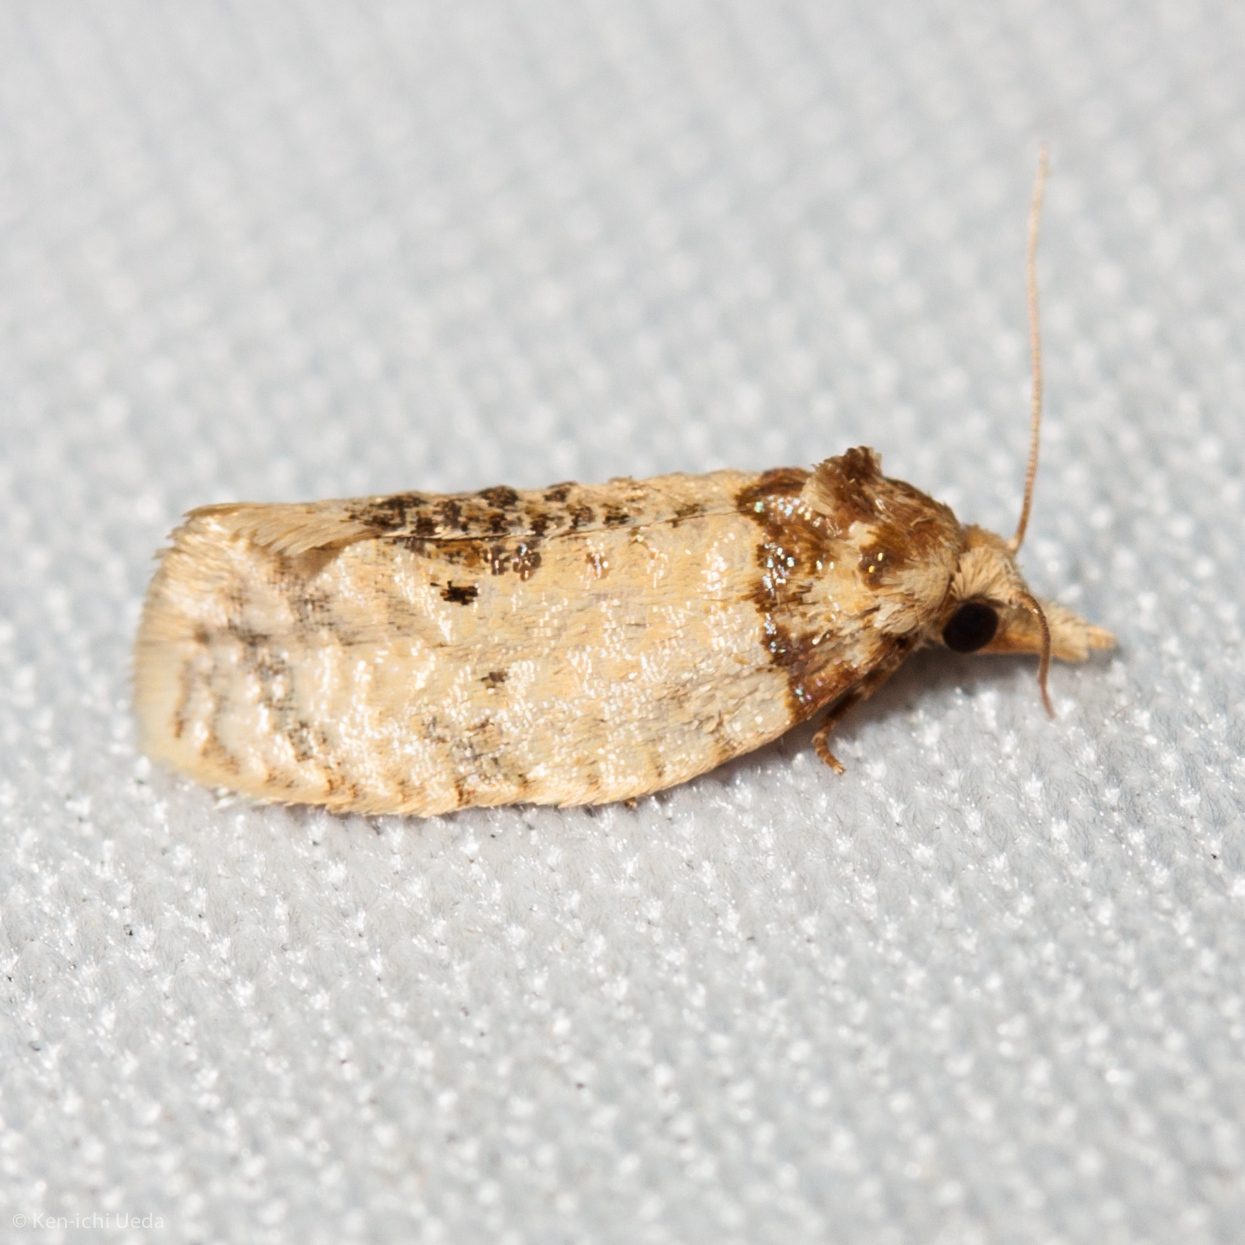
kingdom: Animalia
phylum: Arthropoda
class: Insecta
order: Lepidoptera
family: Tortricidae
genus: Henricus
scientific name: Henricus umbrabasana
